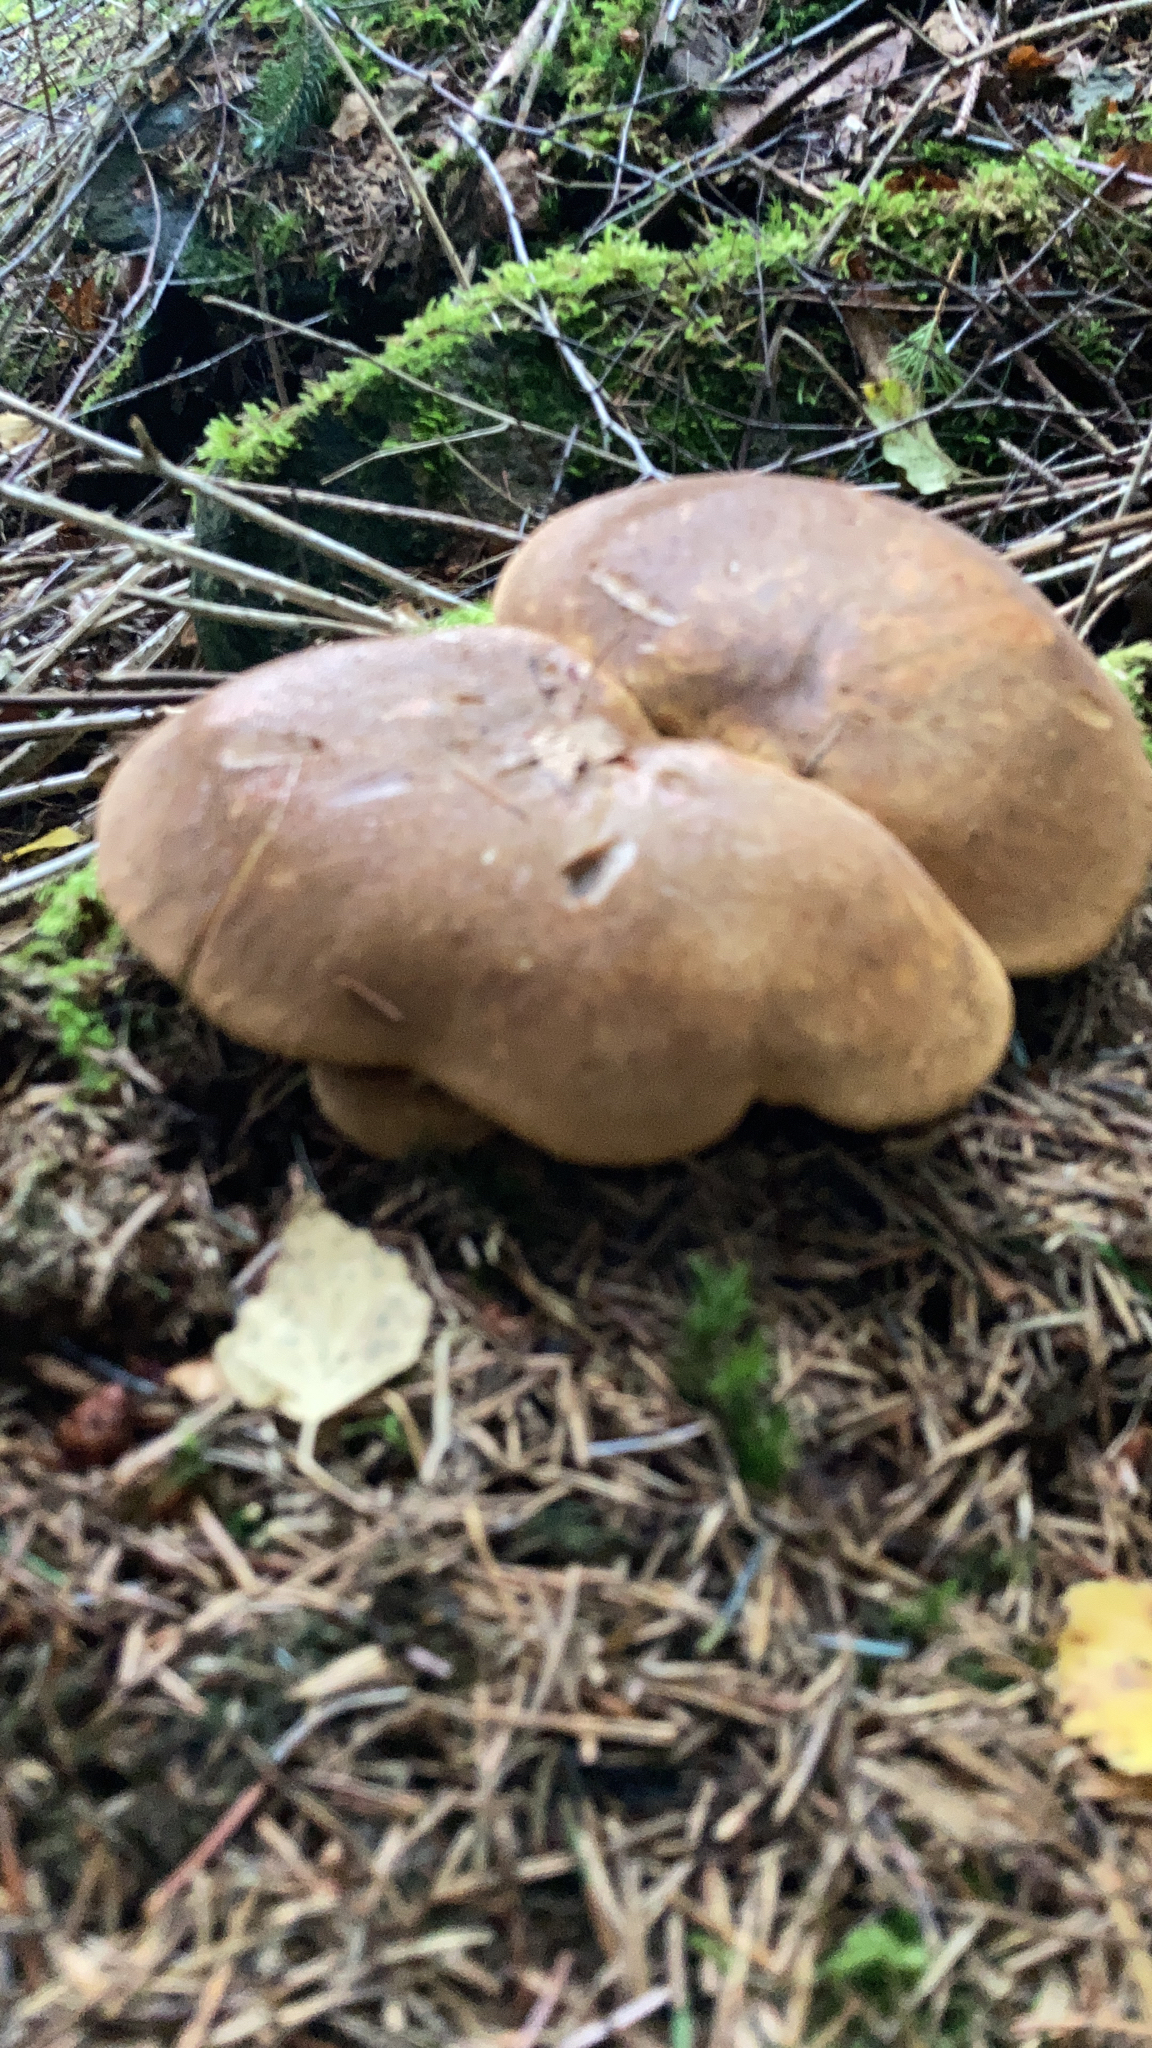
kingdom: Fungi
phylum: Basidiomycota
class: Agaricomycetes
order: Boletales
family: Tapinellaceae
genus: Tapinella
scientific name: Tapinella atrotomentosa
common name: Velvet rollrim
